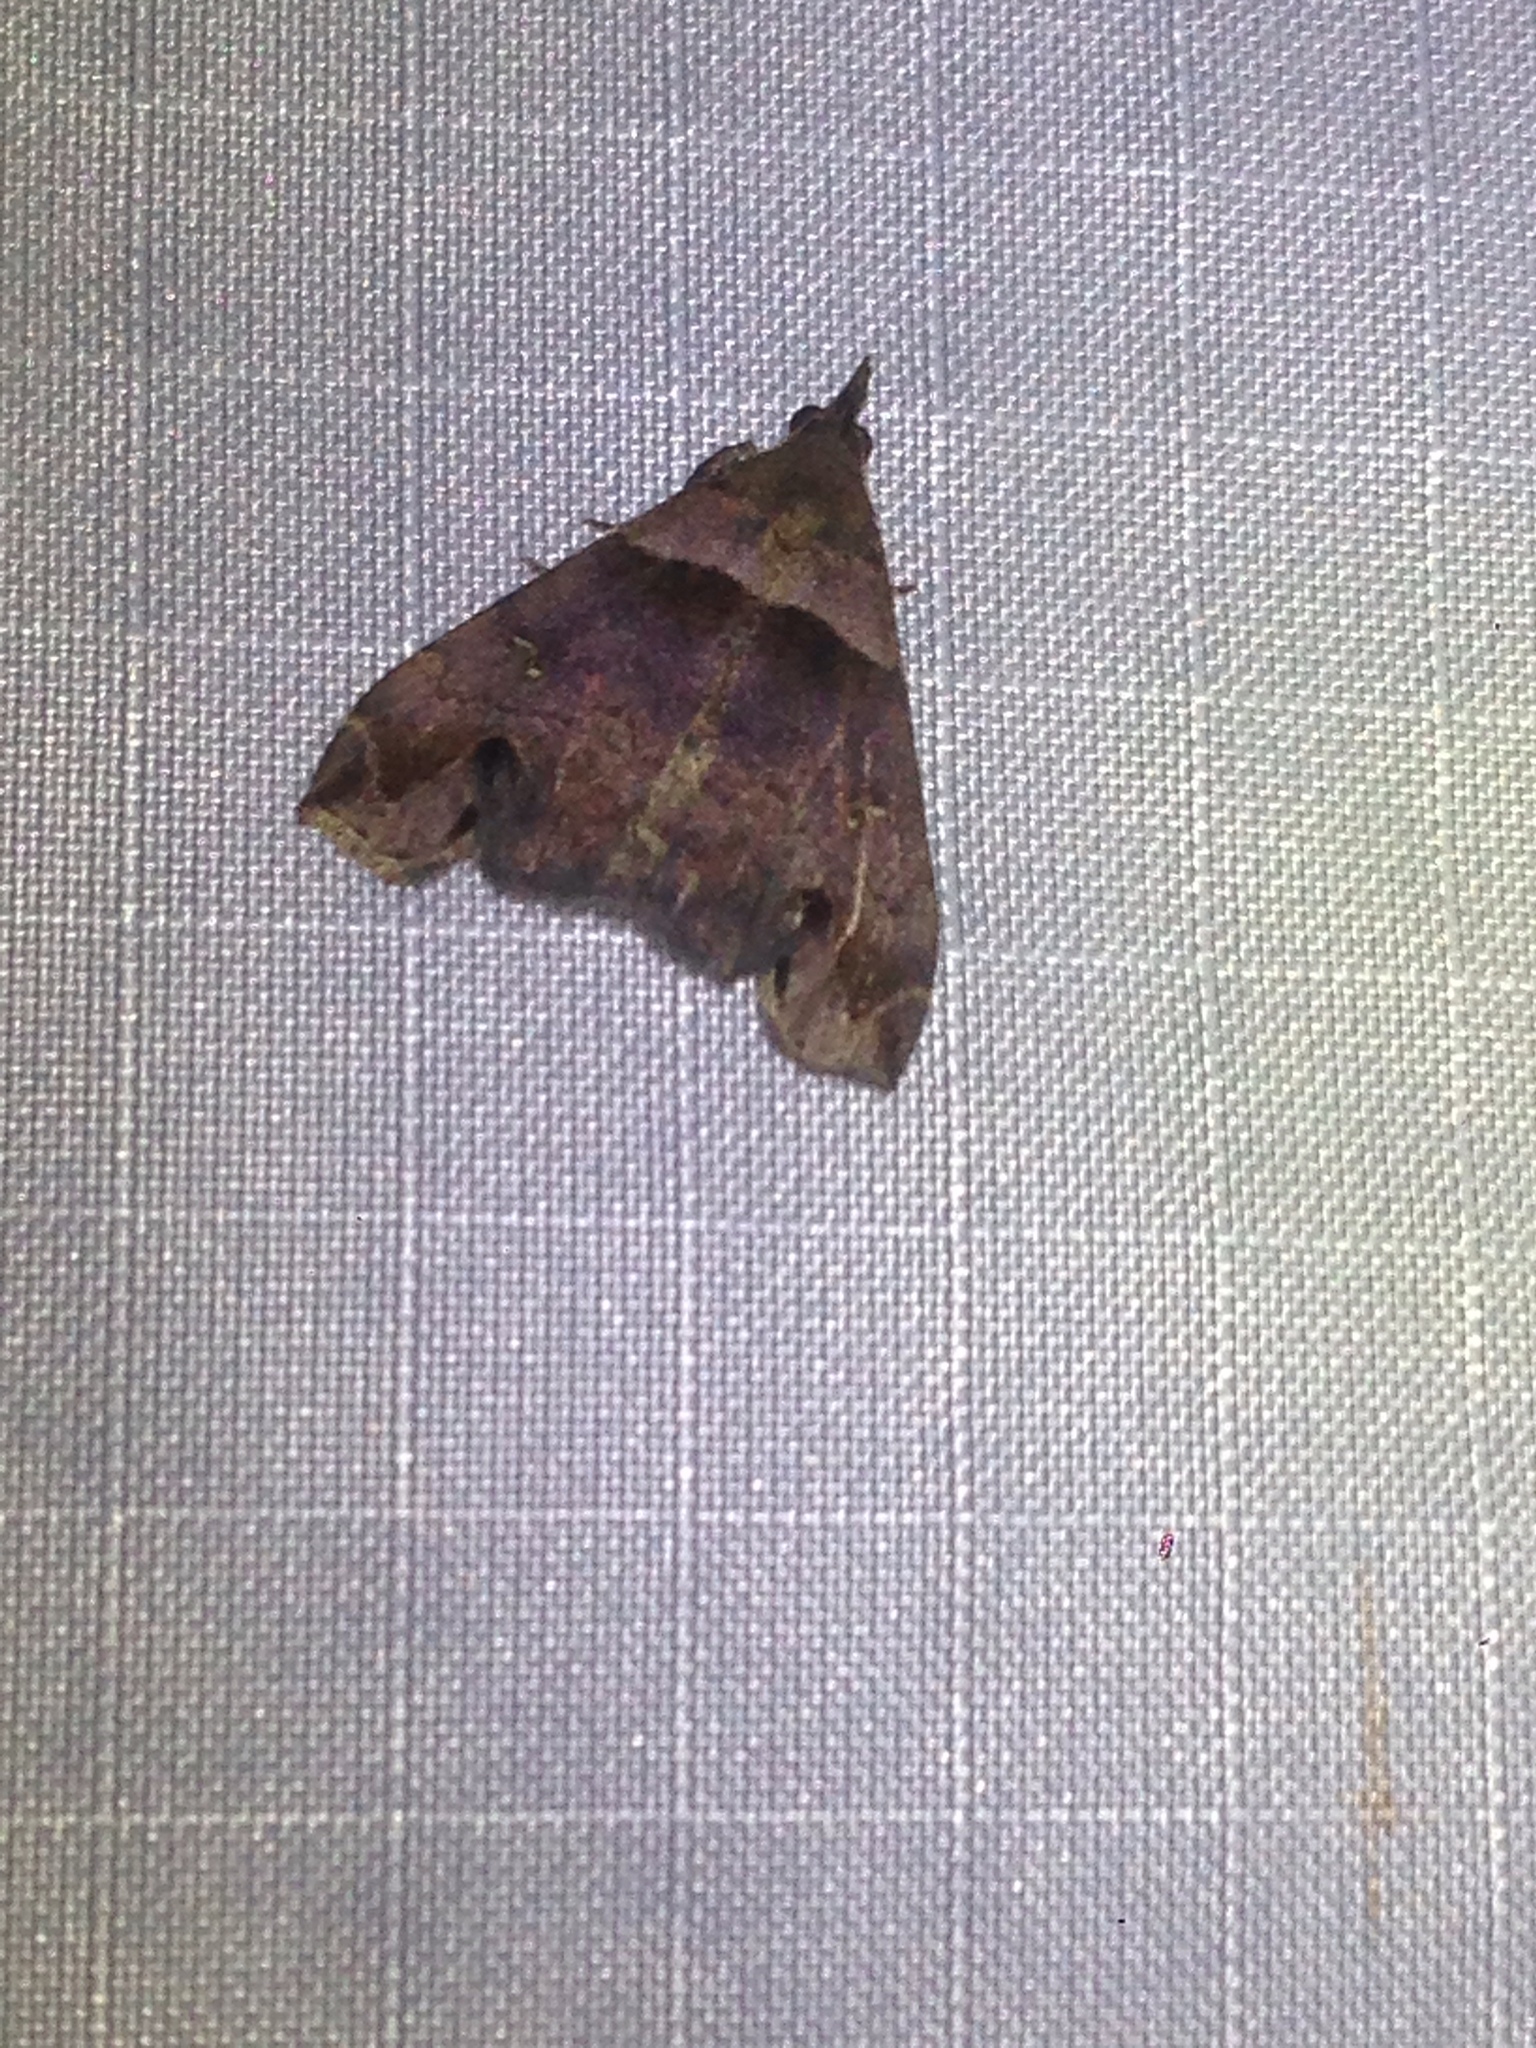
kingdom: Animalia
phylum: Arthropoda
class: Insecta
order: Lepidoptera
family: Erebidae
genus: Lascoria
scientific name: Lascoria ambigualis
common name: Ambiguous moth
